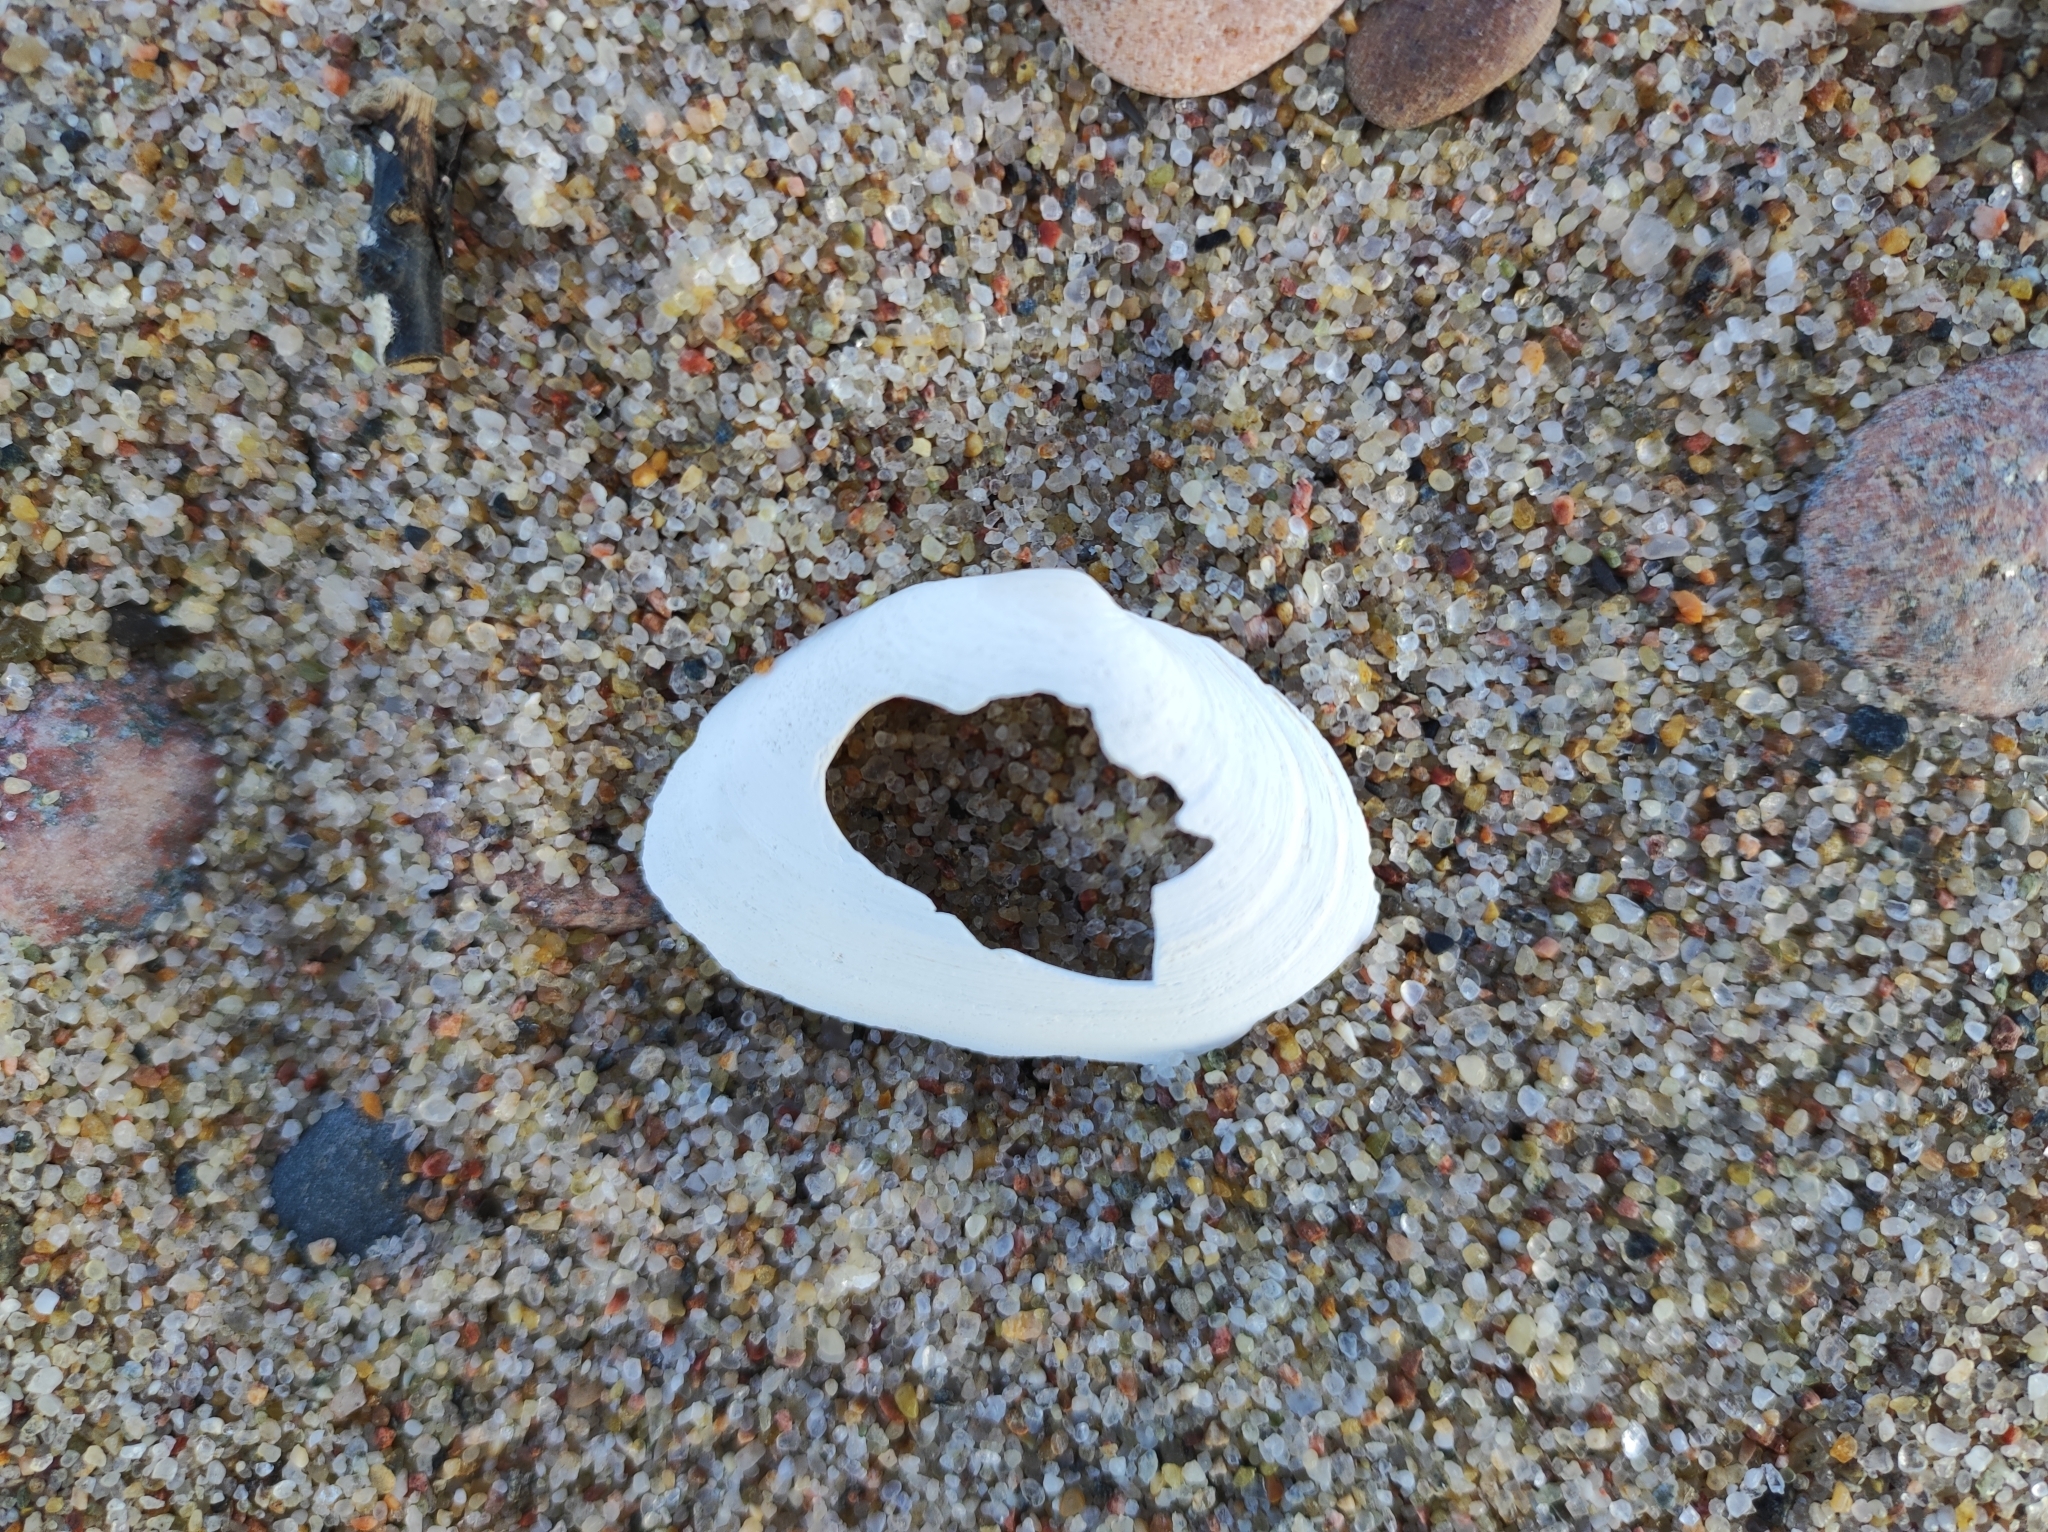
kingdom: Animalia
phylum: Mollusca
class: Bivalvia
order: Myida
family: Myidae
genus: Mya
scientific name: Mya arenaria
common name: Soft-shelled clam
